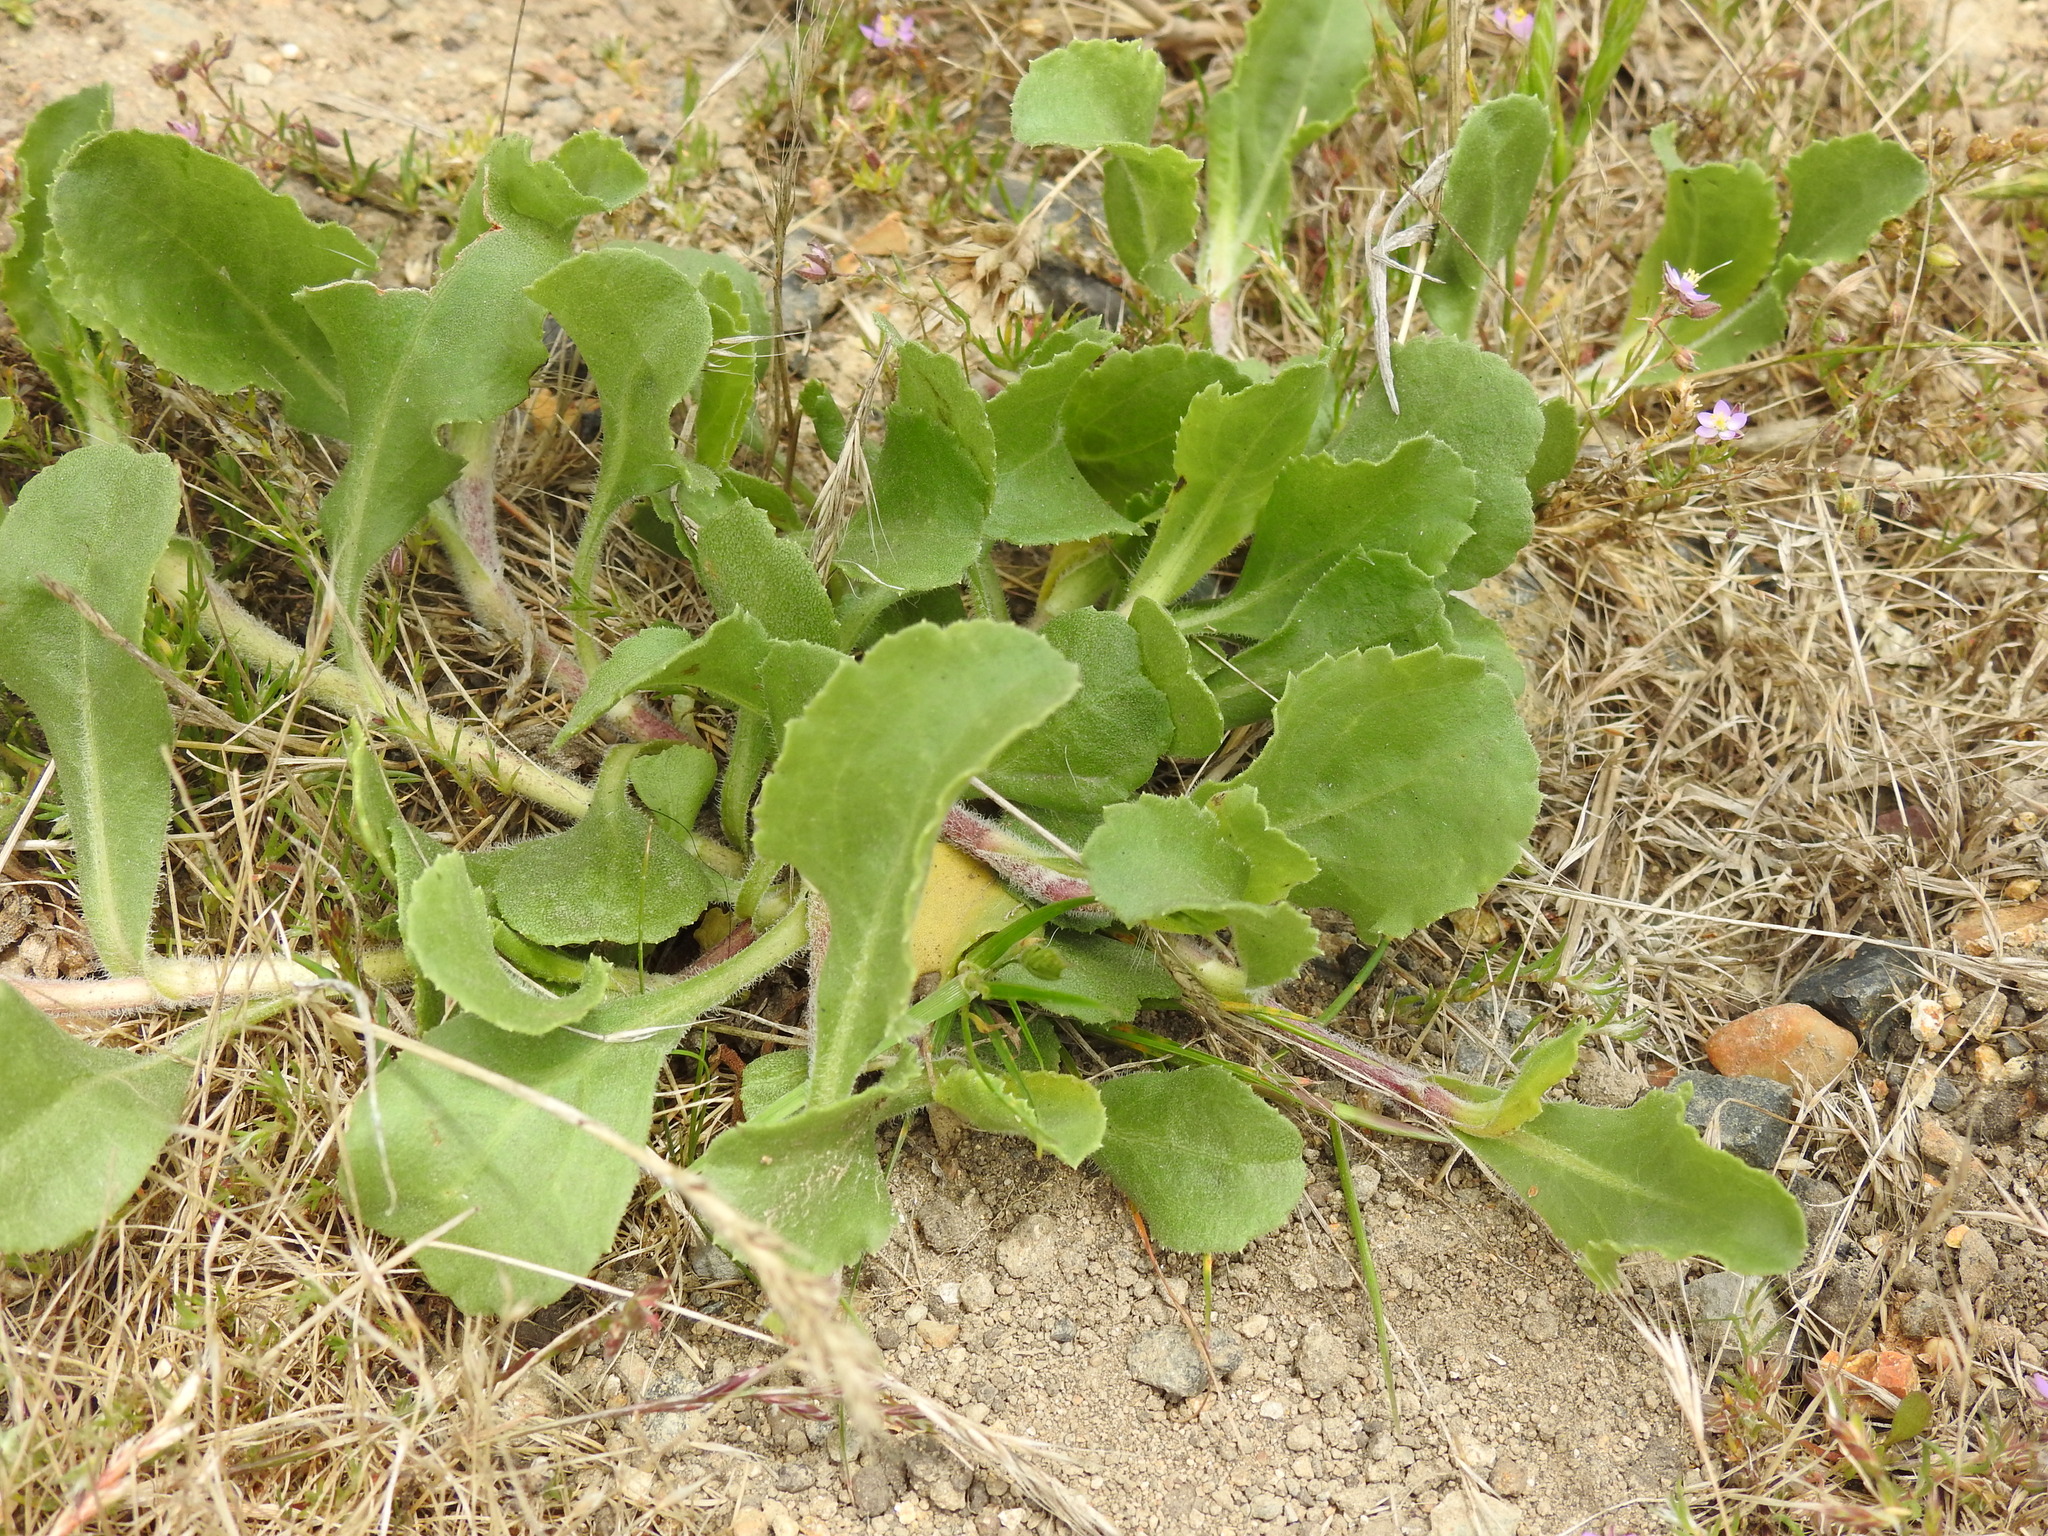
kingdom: Plantae
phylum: Tracheophyta
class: Magnoliopsida
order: Asterales
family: Asteraceae
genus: Grindelia
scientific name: Grindelia hirsutula
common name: Hairy gumweed
